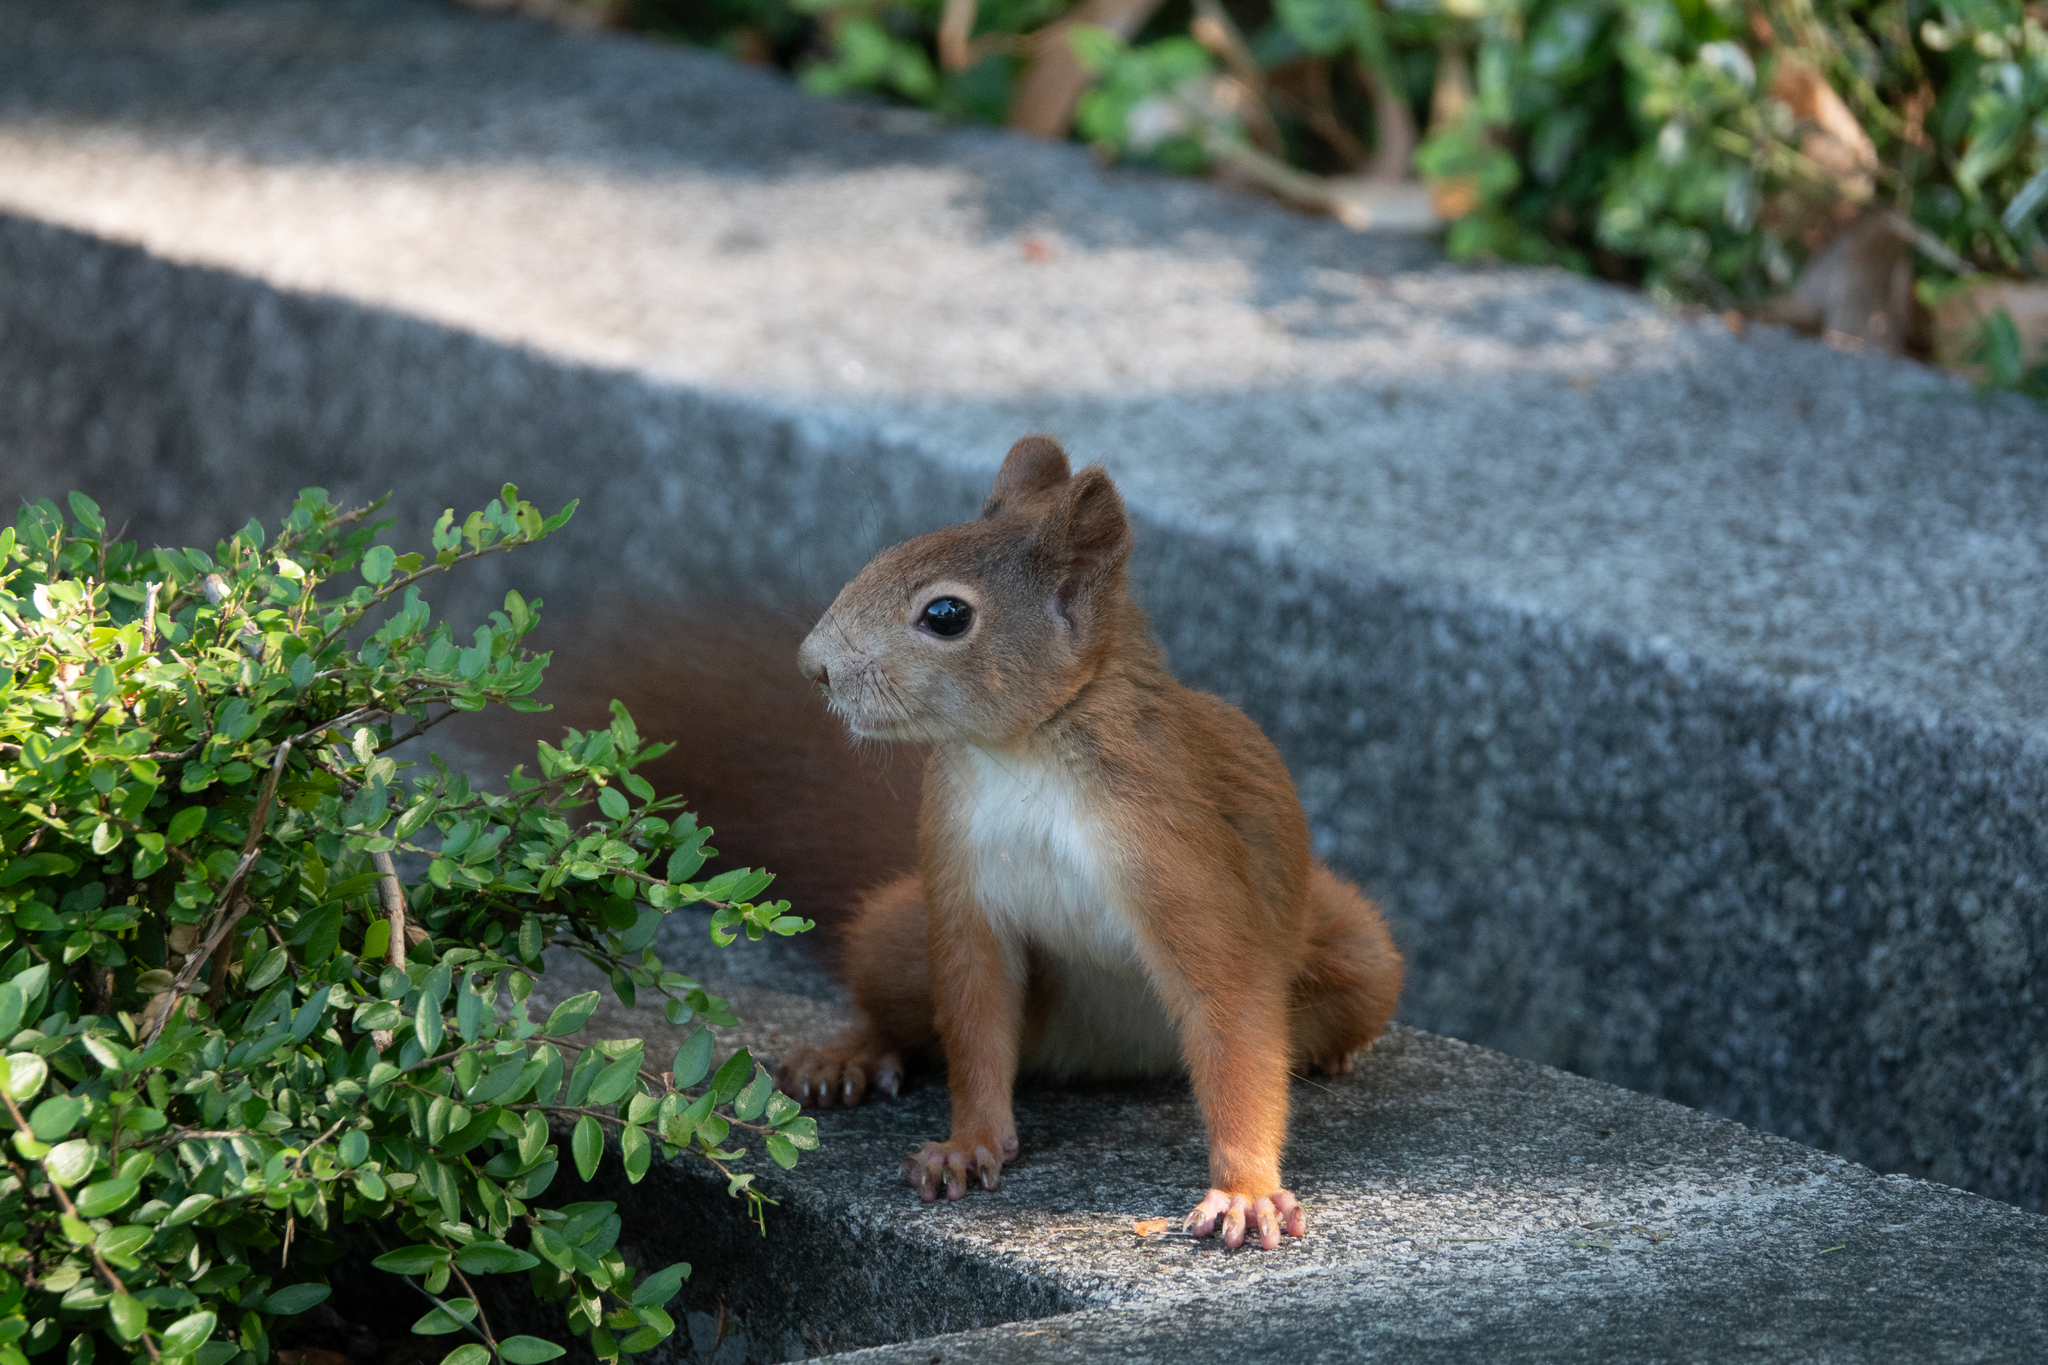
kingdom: Animalia
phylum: Chordata
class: Mammalia
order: Rodentia
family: Sciuridae
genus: Sciurus
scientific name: Sciurus vulgaris
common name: Eurasian red squirrel
